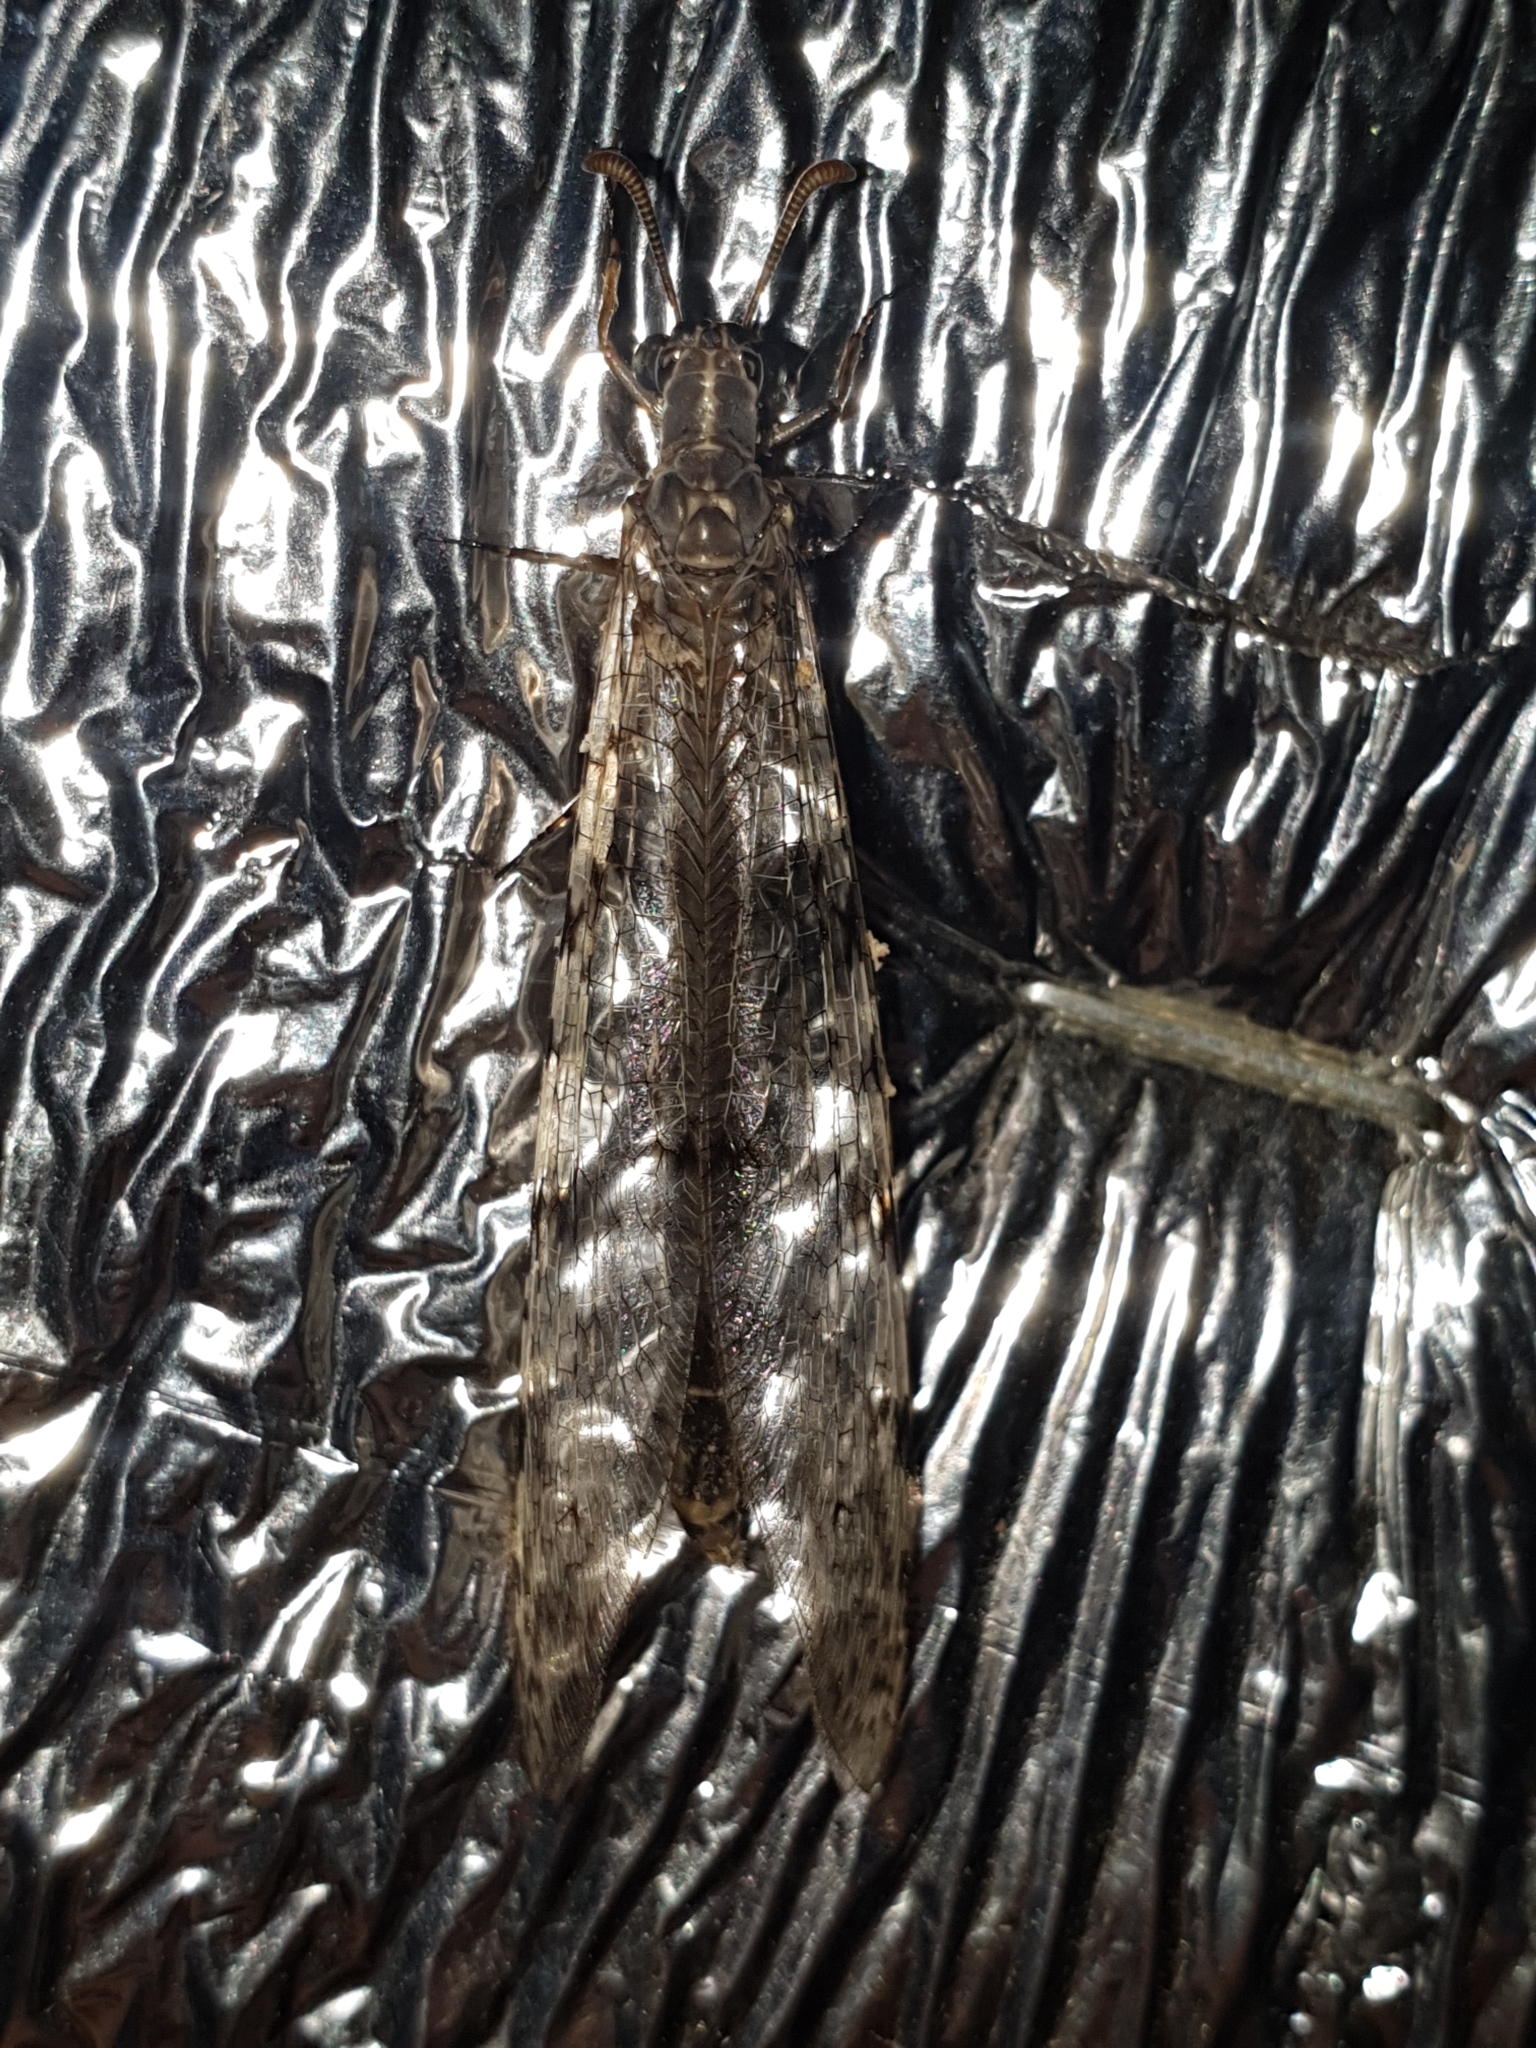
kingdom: Animalia
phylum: Arthropoda
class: Insecta
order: Neuroptera
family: Myrmeleontidae
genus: Euroleon
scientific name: Euroleon nostras
